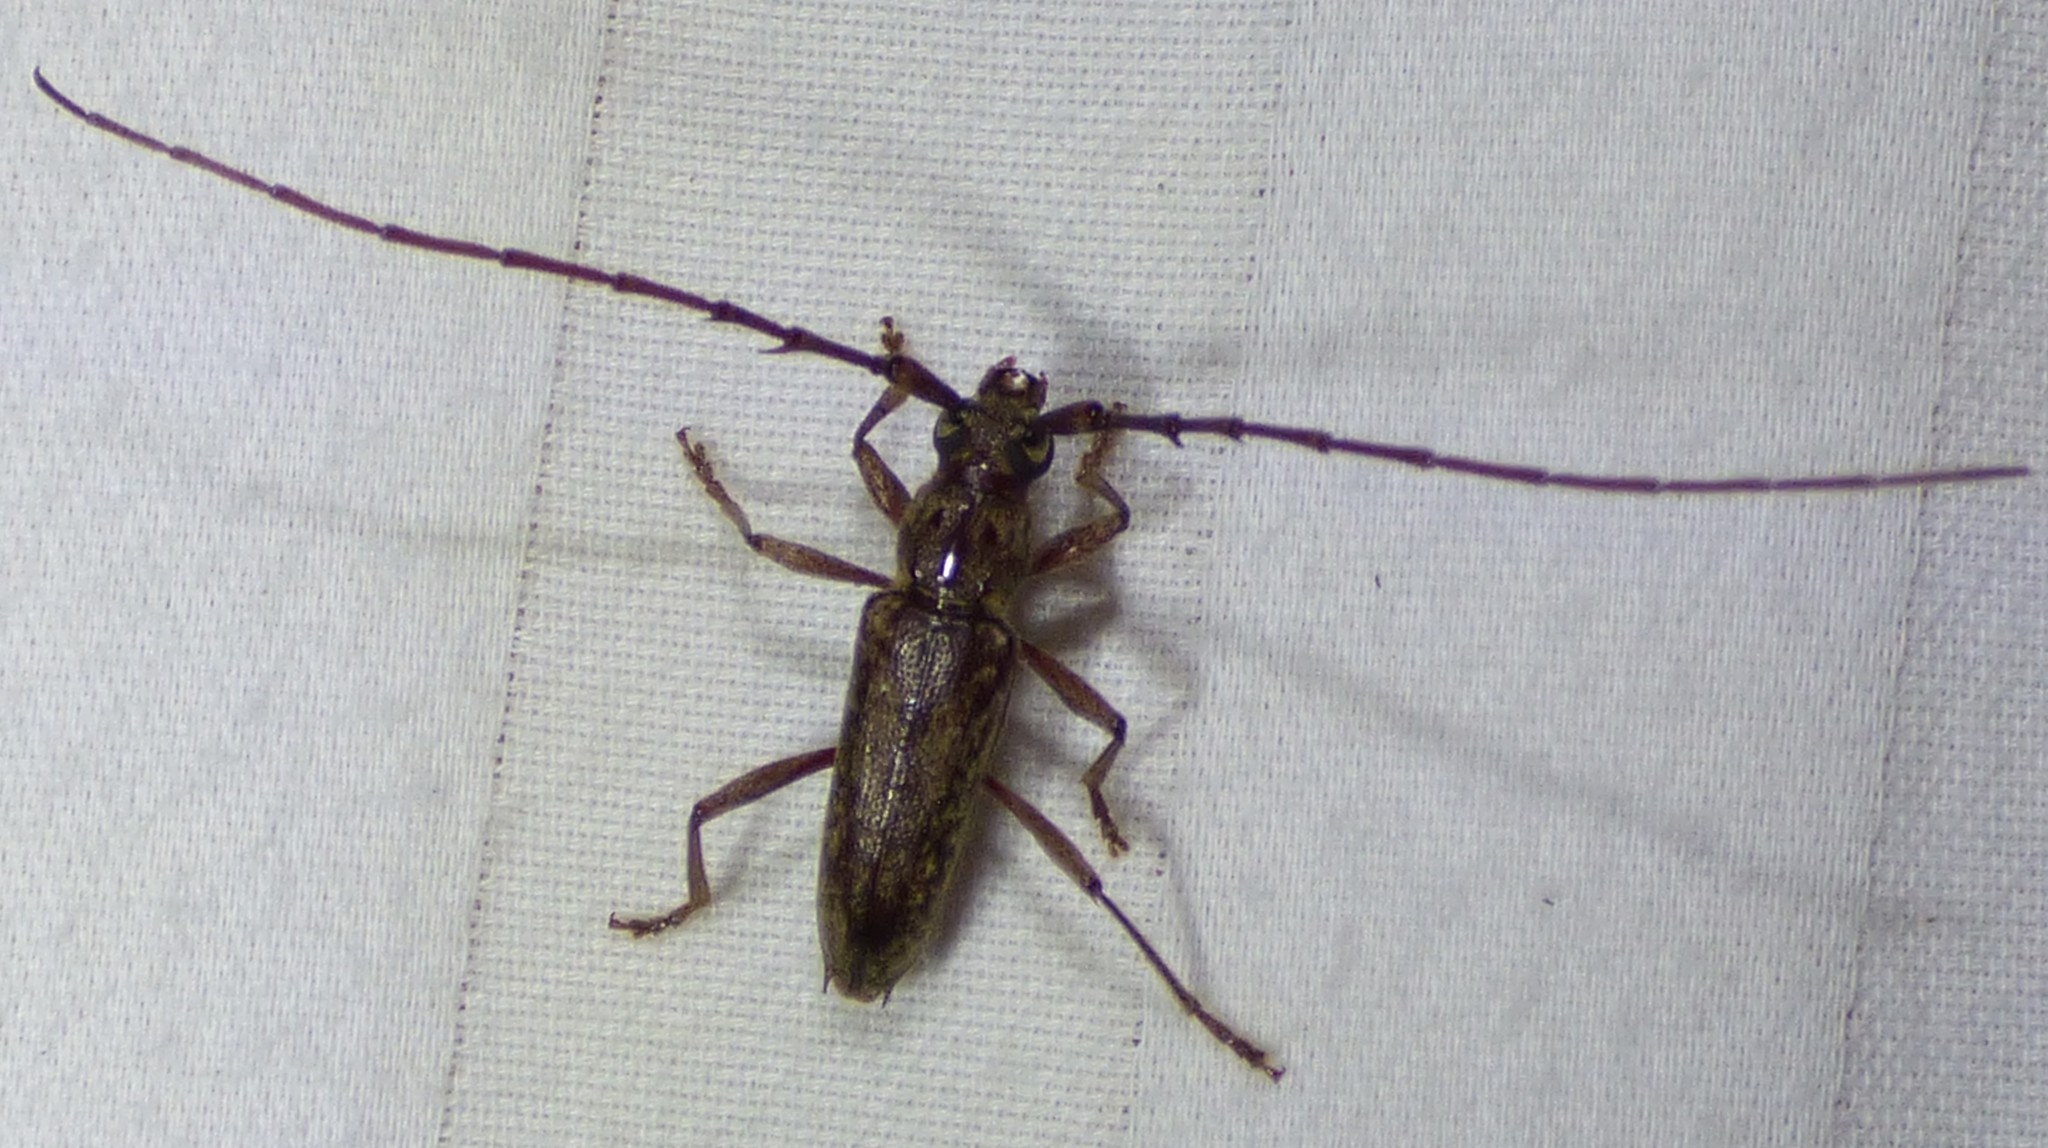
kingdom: Animalia
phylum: Arthropoda
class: Insecta
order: Coleoptera
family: Cerambycidae
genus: Elaphidion
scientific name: Elaphidion mucronatum
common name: Spined oak borer
